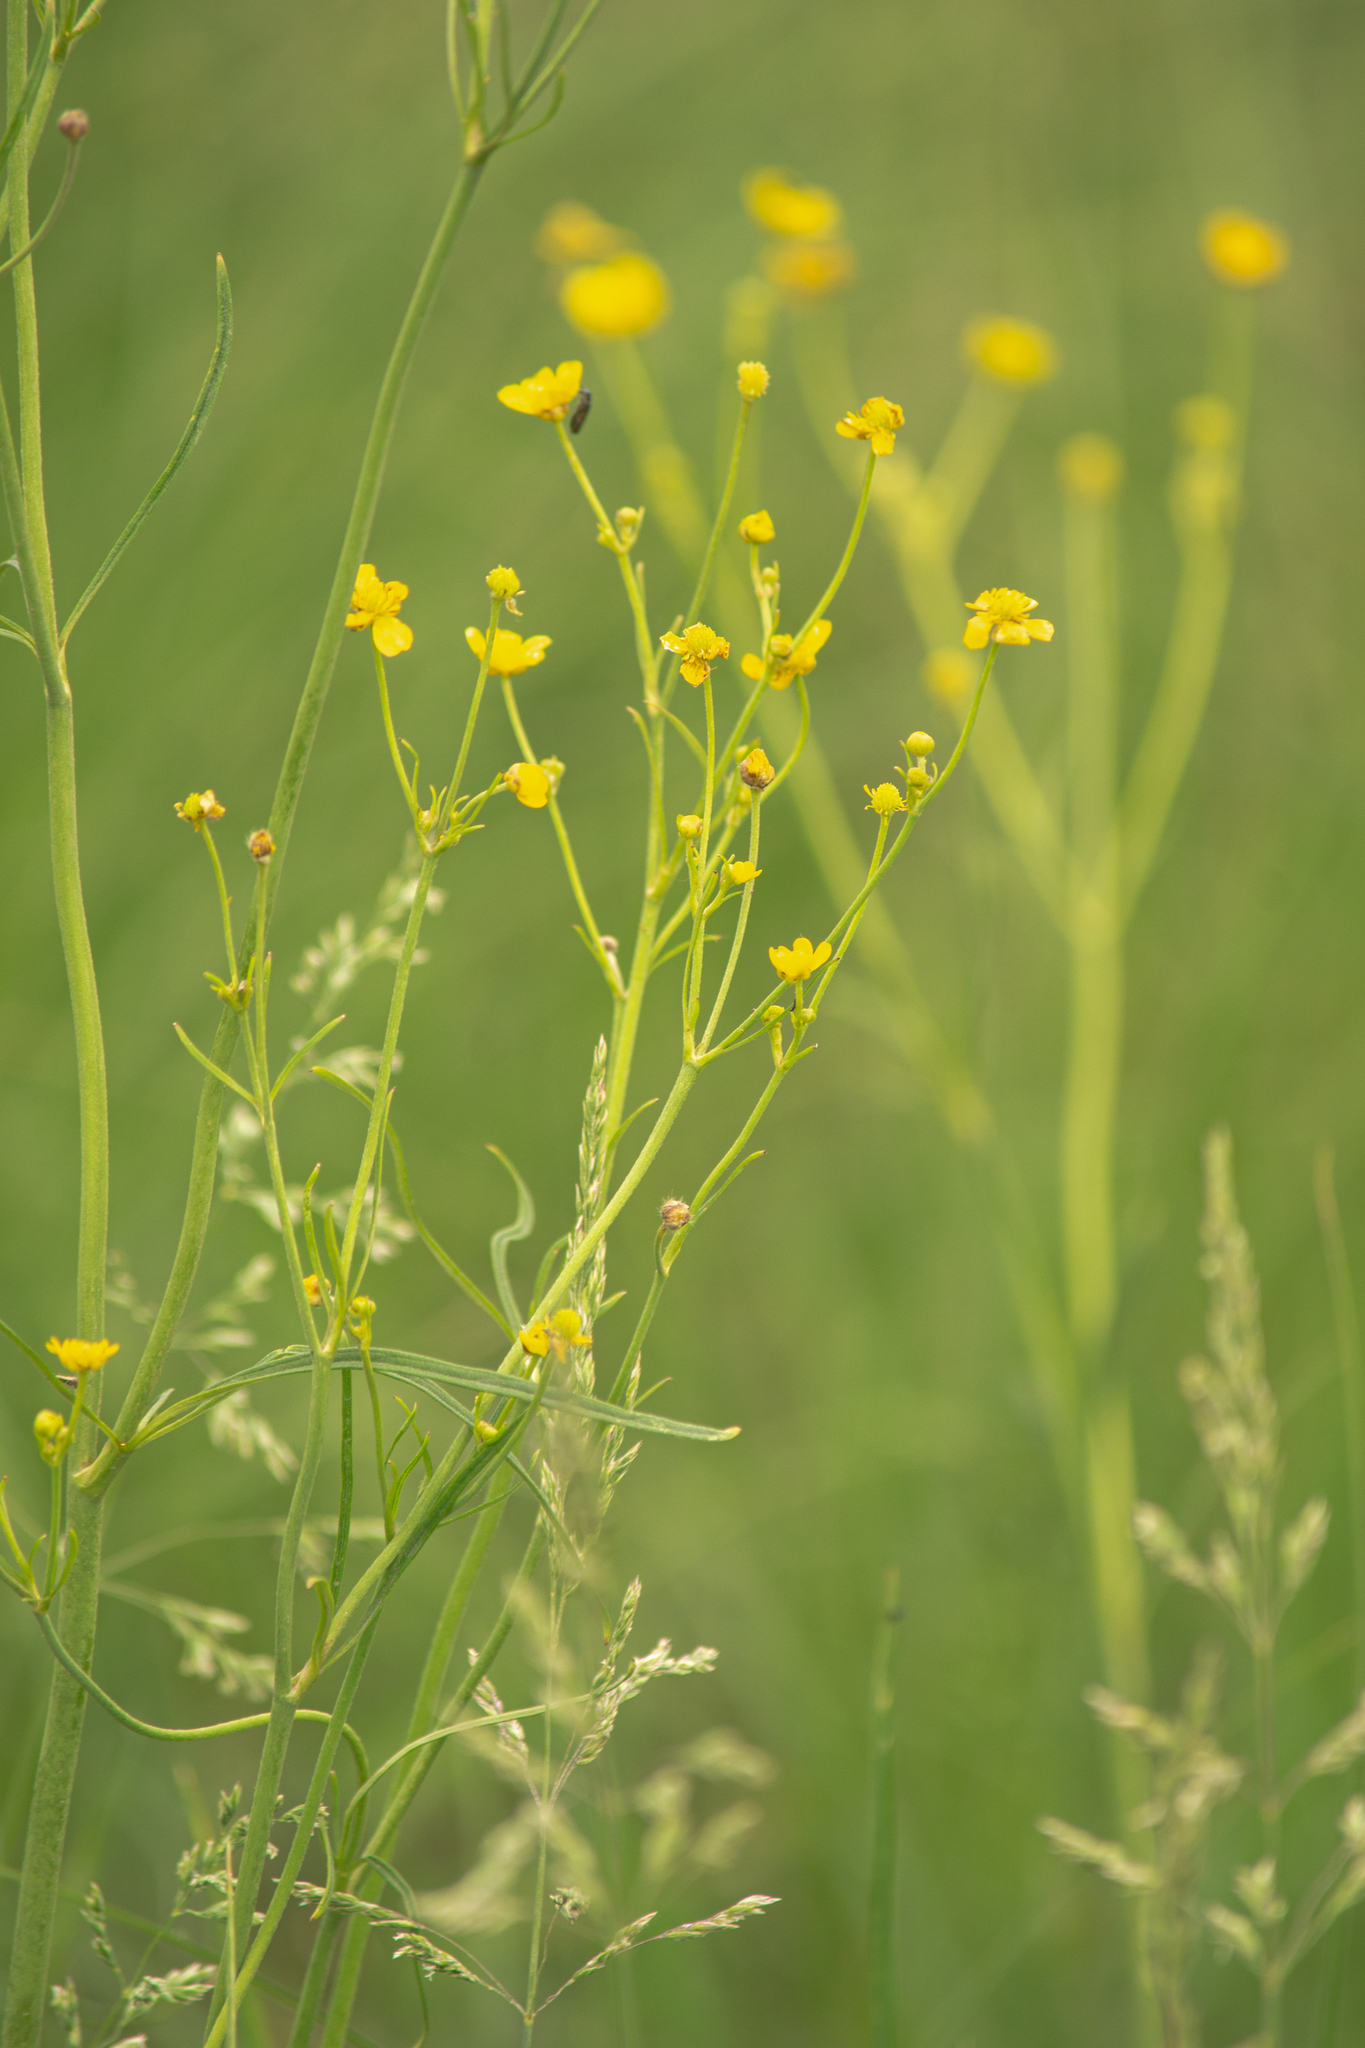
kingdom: Plantae
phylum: Tracheophyta
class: Magnoliopsida
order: Ranunculales
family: Ranunculaceae
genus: Ranunculus
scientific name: Ranunculus acris
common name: Meadow buttercup
